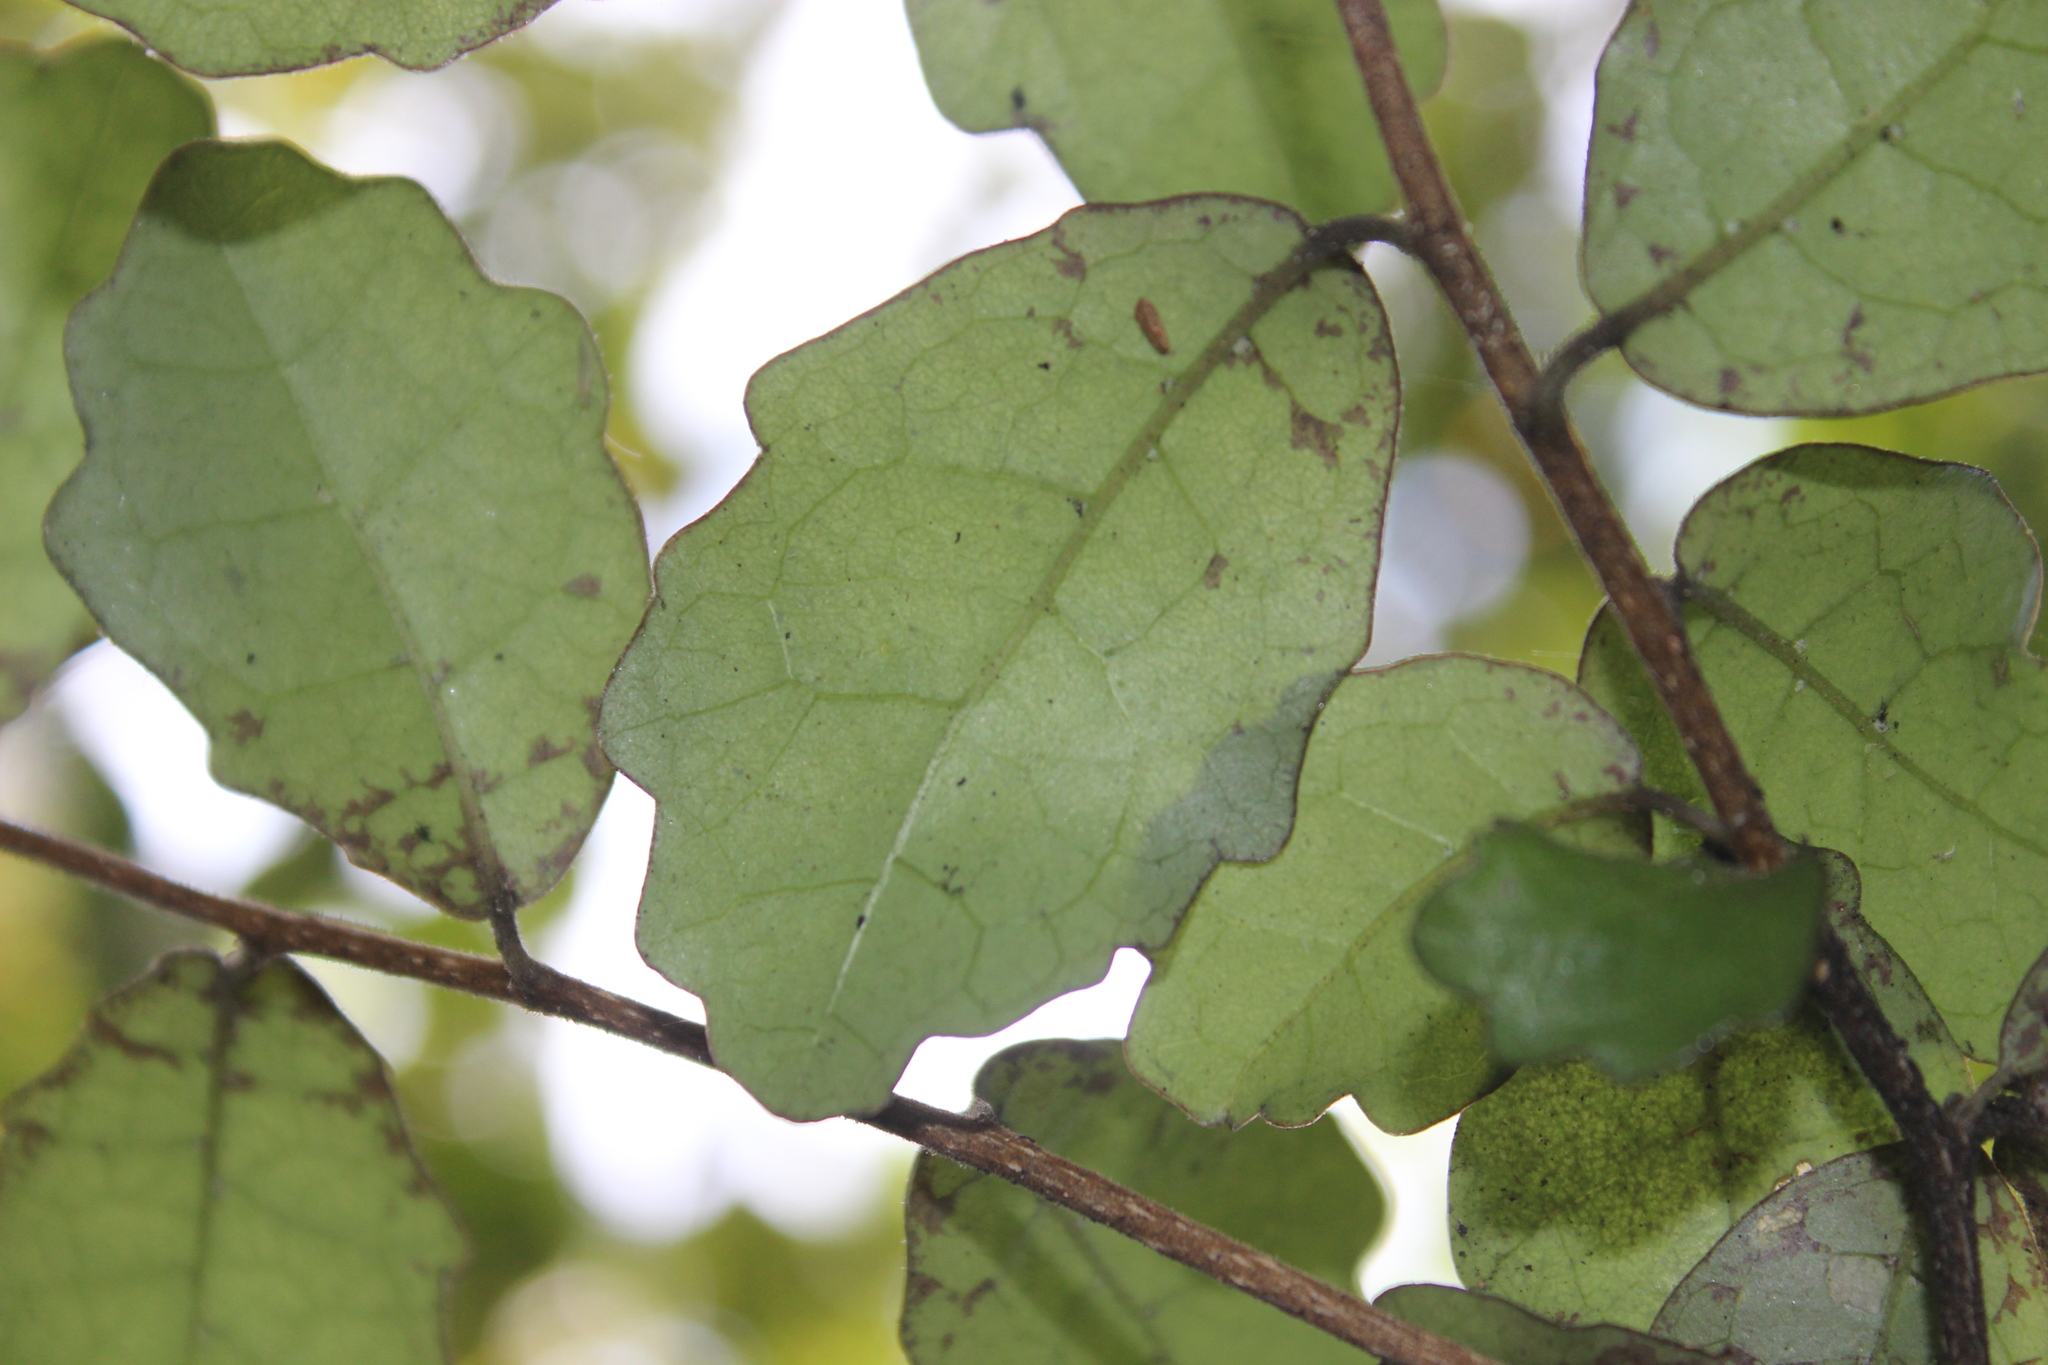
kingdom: Plantae
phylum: Tracheophyta
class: Magnoliopsida
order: Apiales
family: Pennantiaceae
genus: Pennantia
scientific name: Pennantia corymbosa
